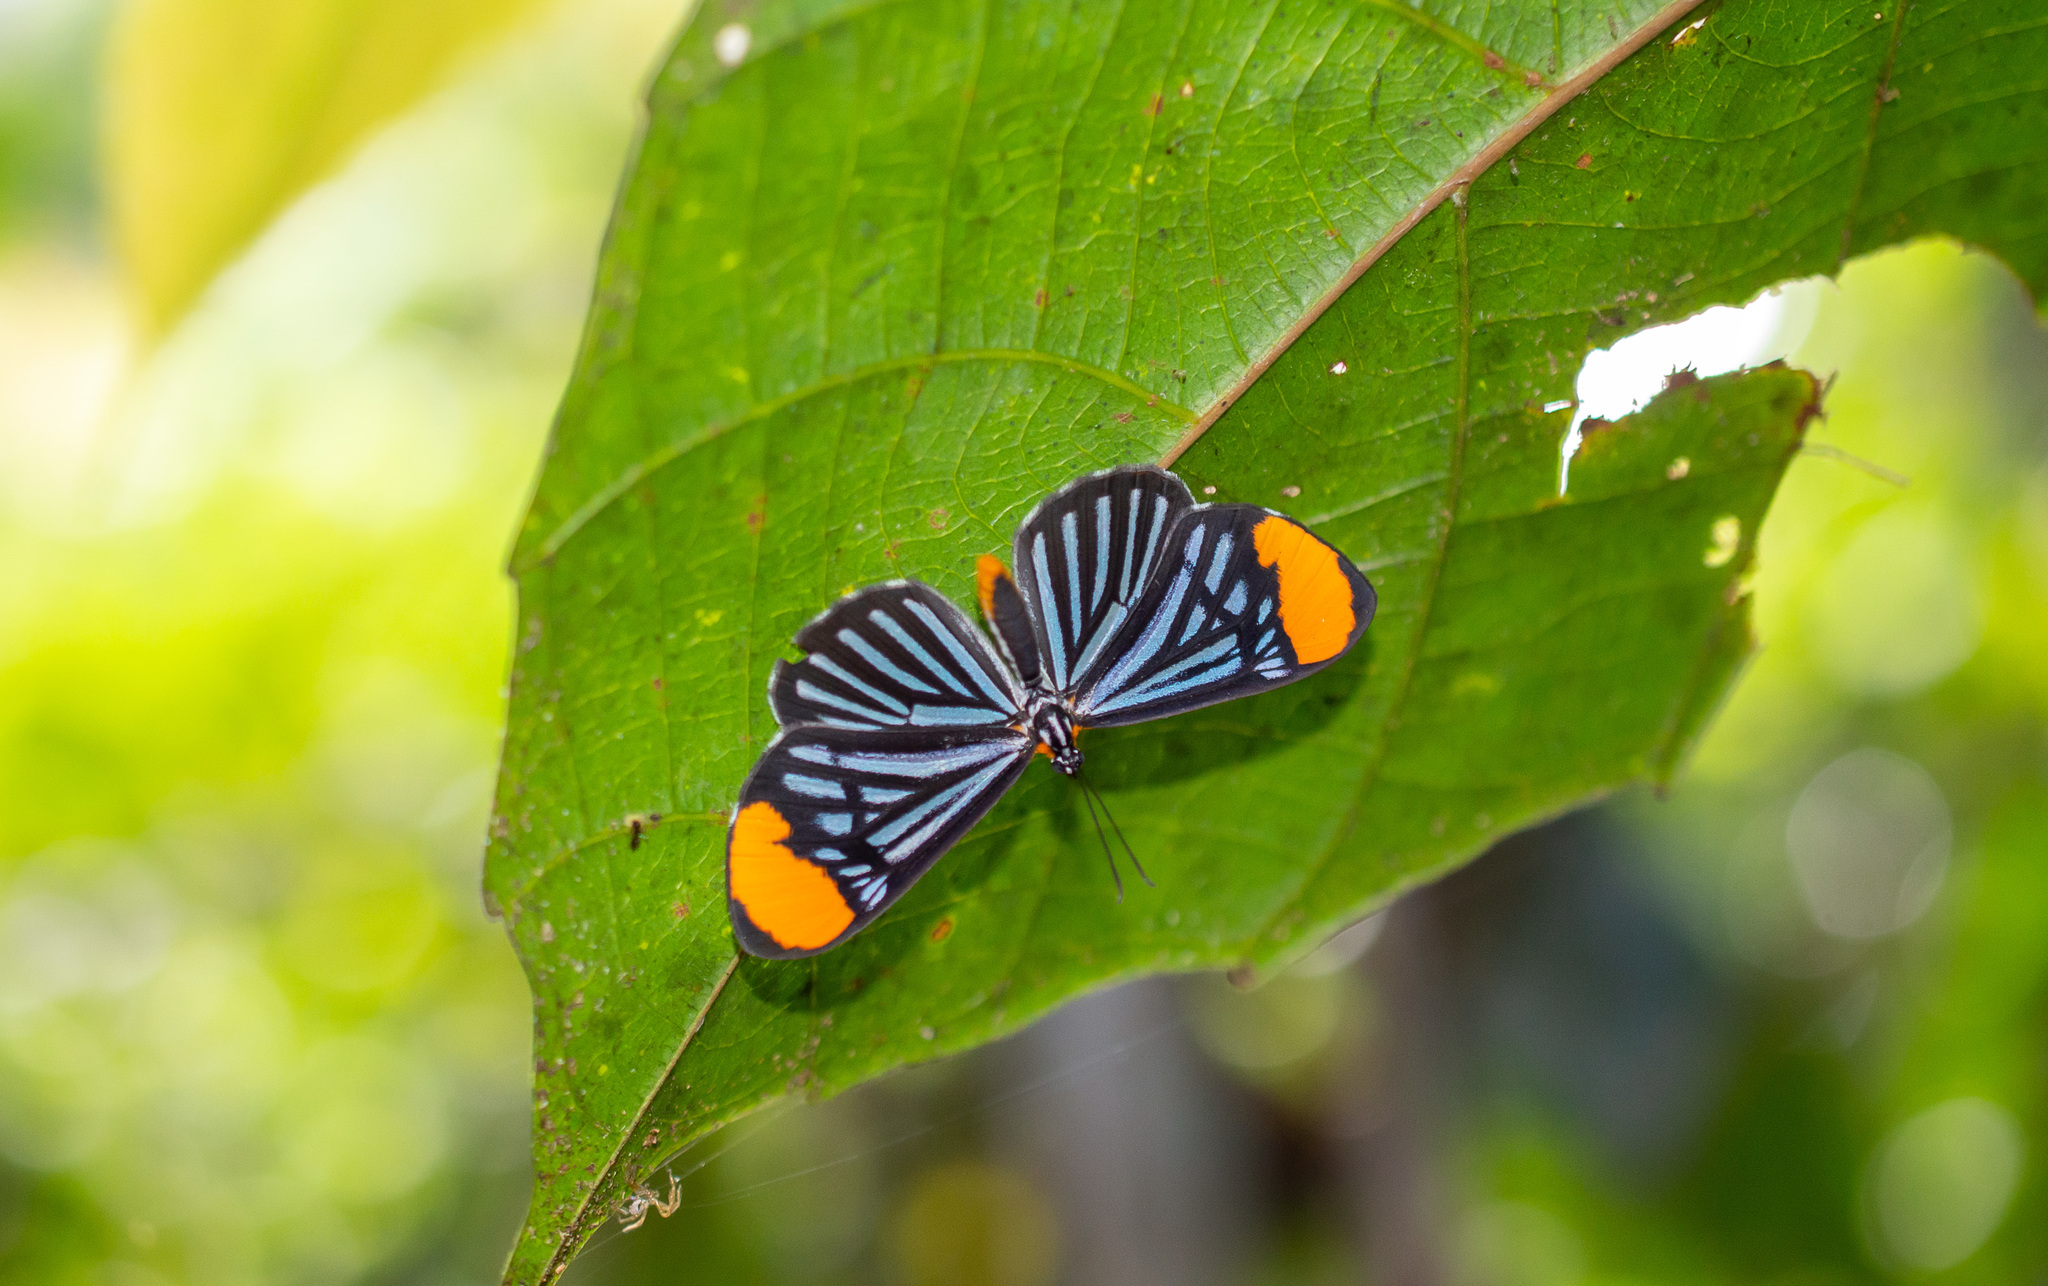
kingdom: Animalia
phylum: Arthropoda
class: Insecta
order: Lepidoptera
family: Riodinidae
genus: Stalachtis
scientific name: Stalachtis lineata
